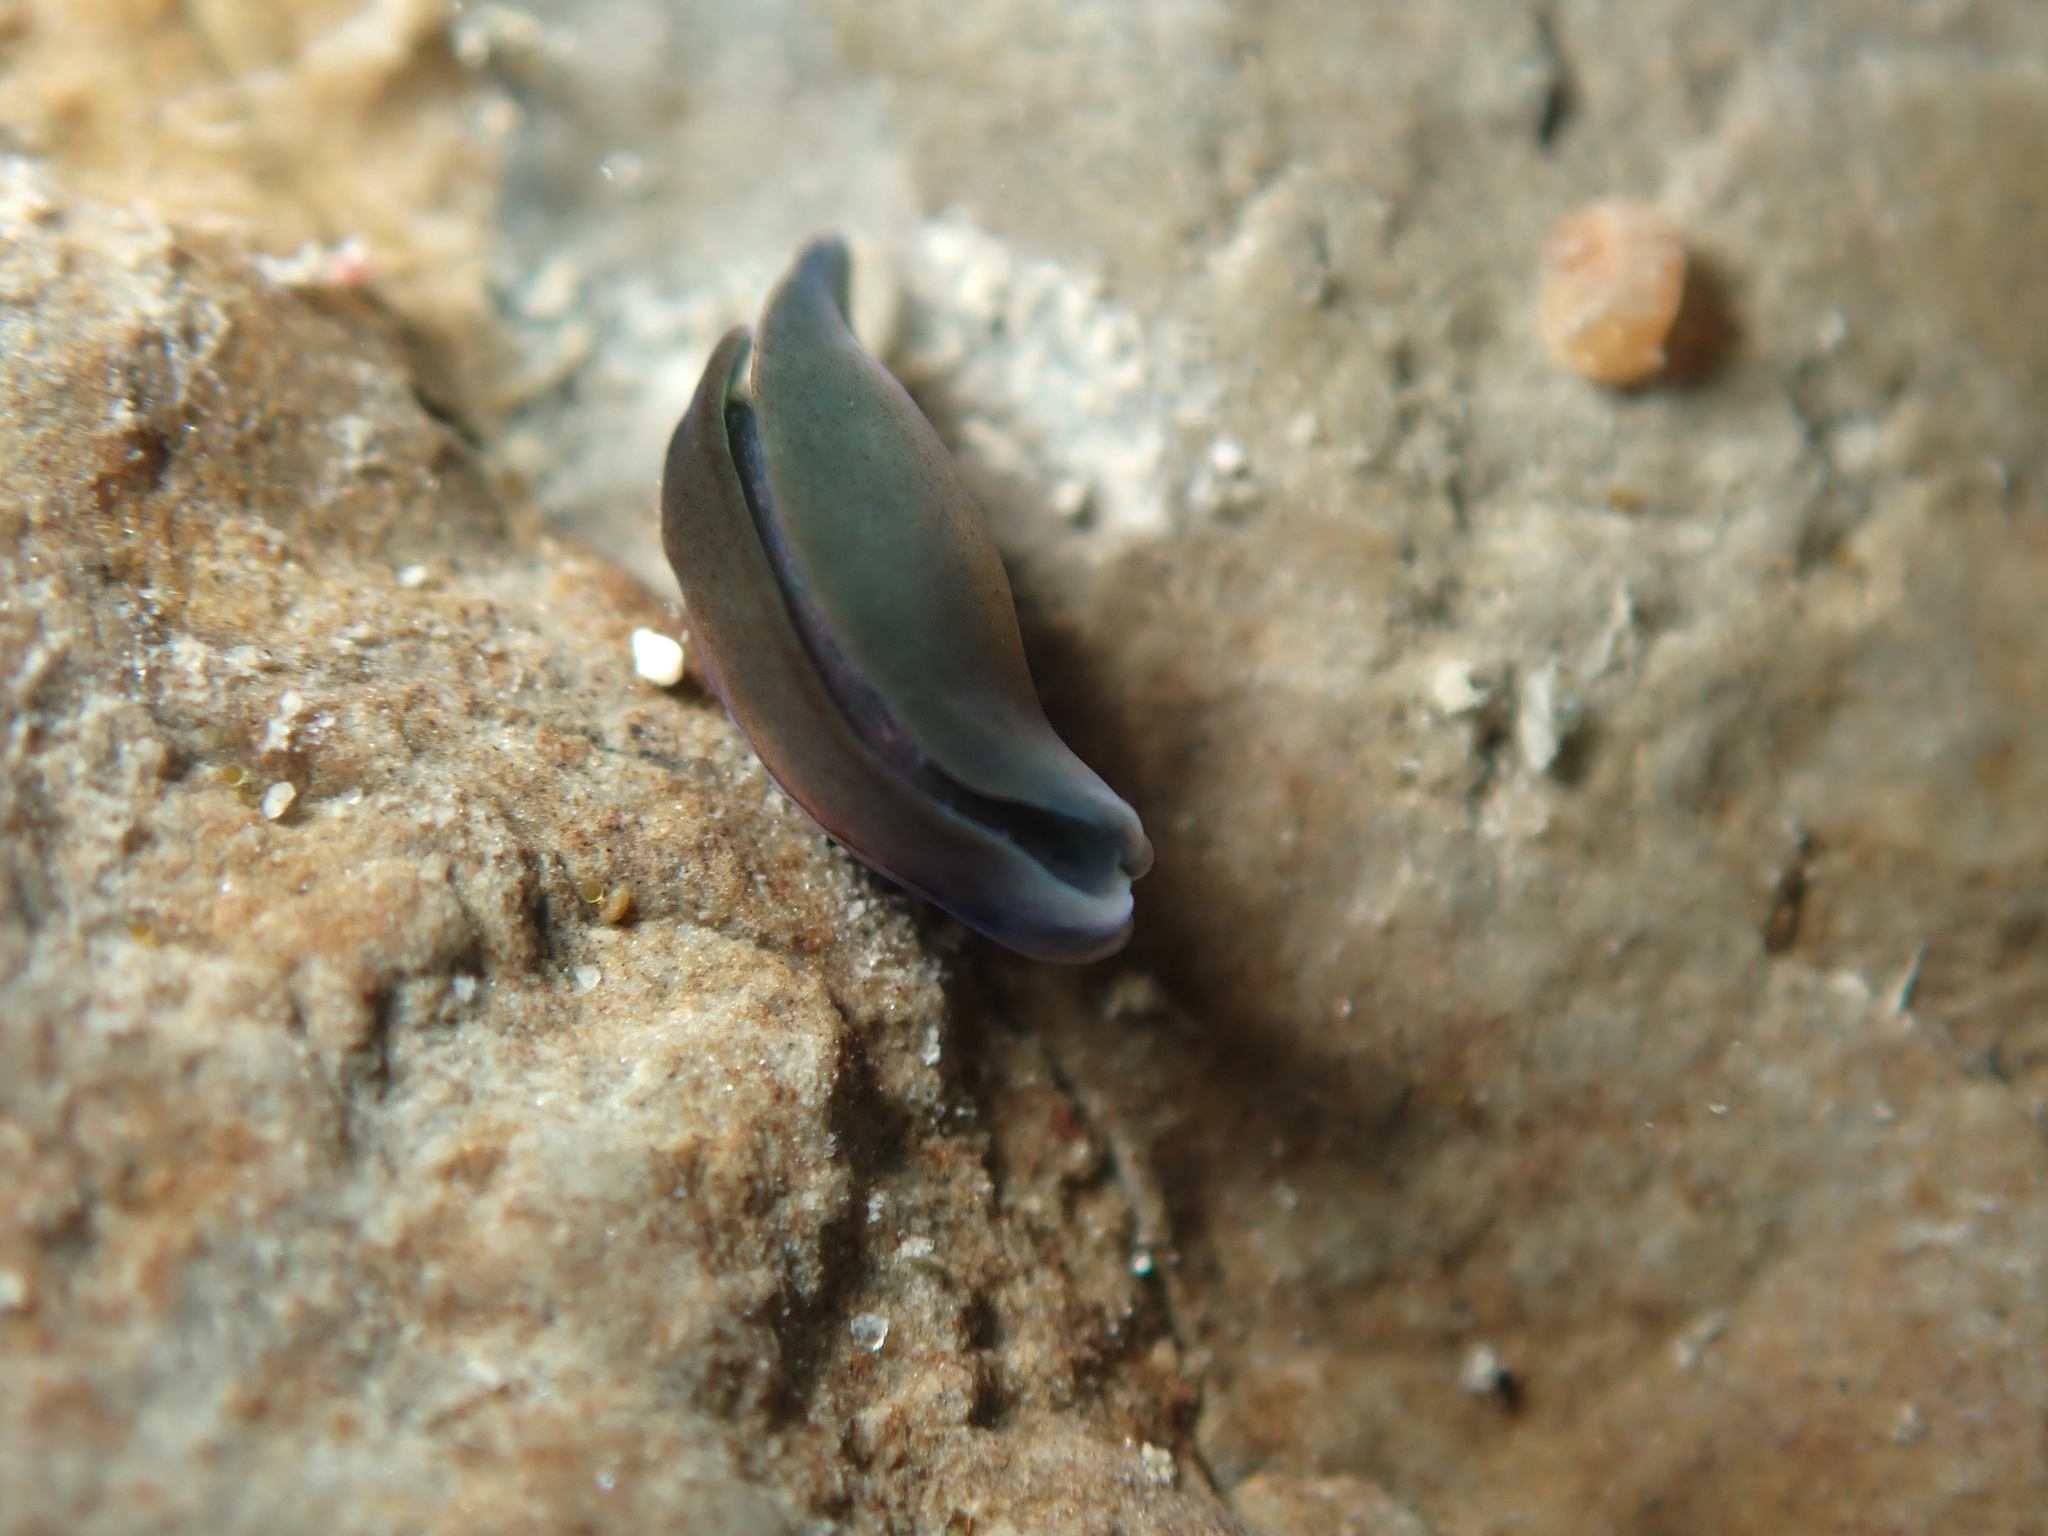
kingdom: Animalia
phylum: Mollusca
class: Gastropoda
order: Runcinida
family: Runcinidae
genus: Runcina
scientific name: Runcina katipoides
